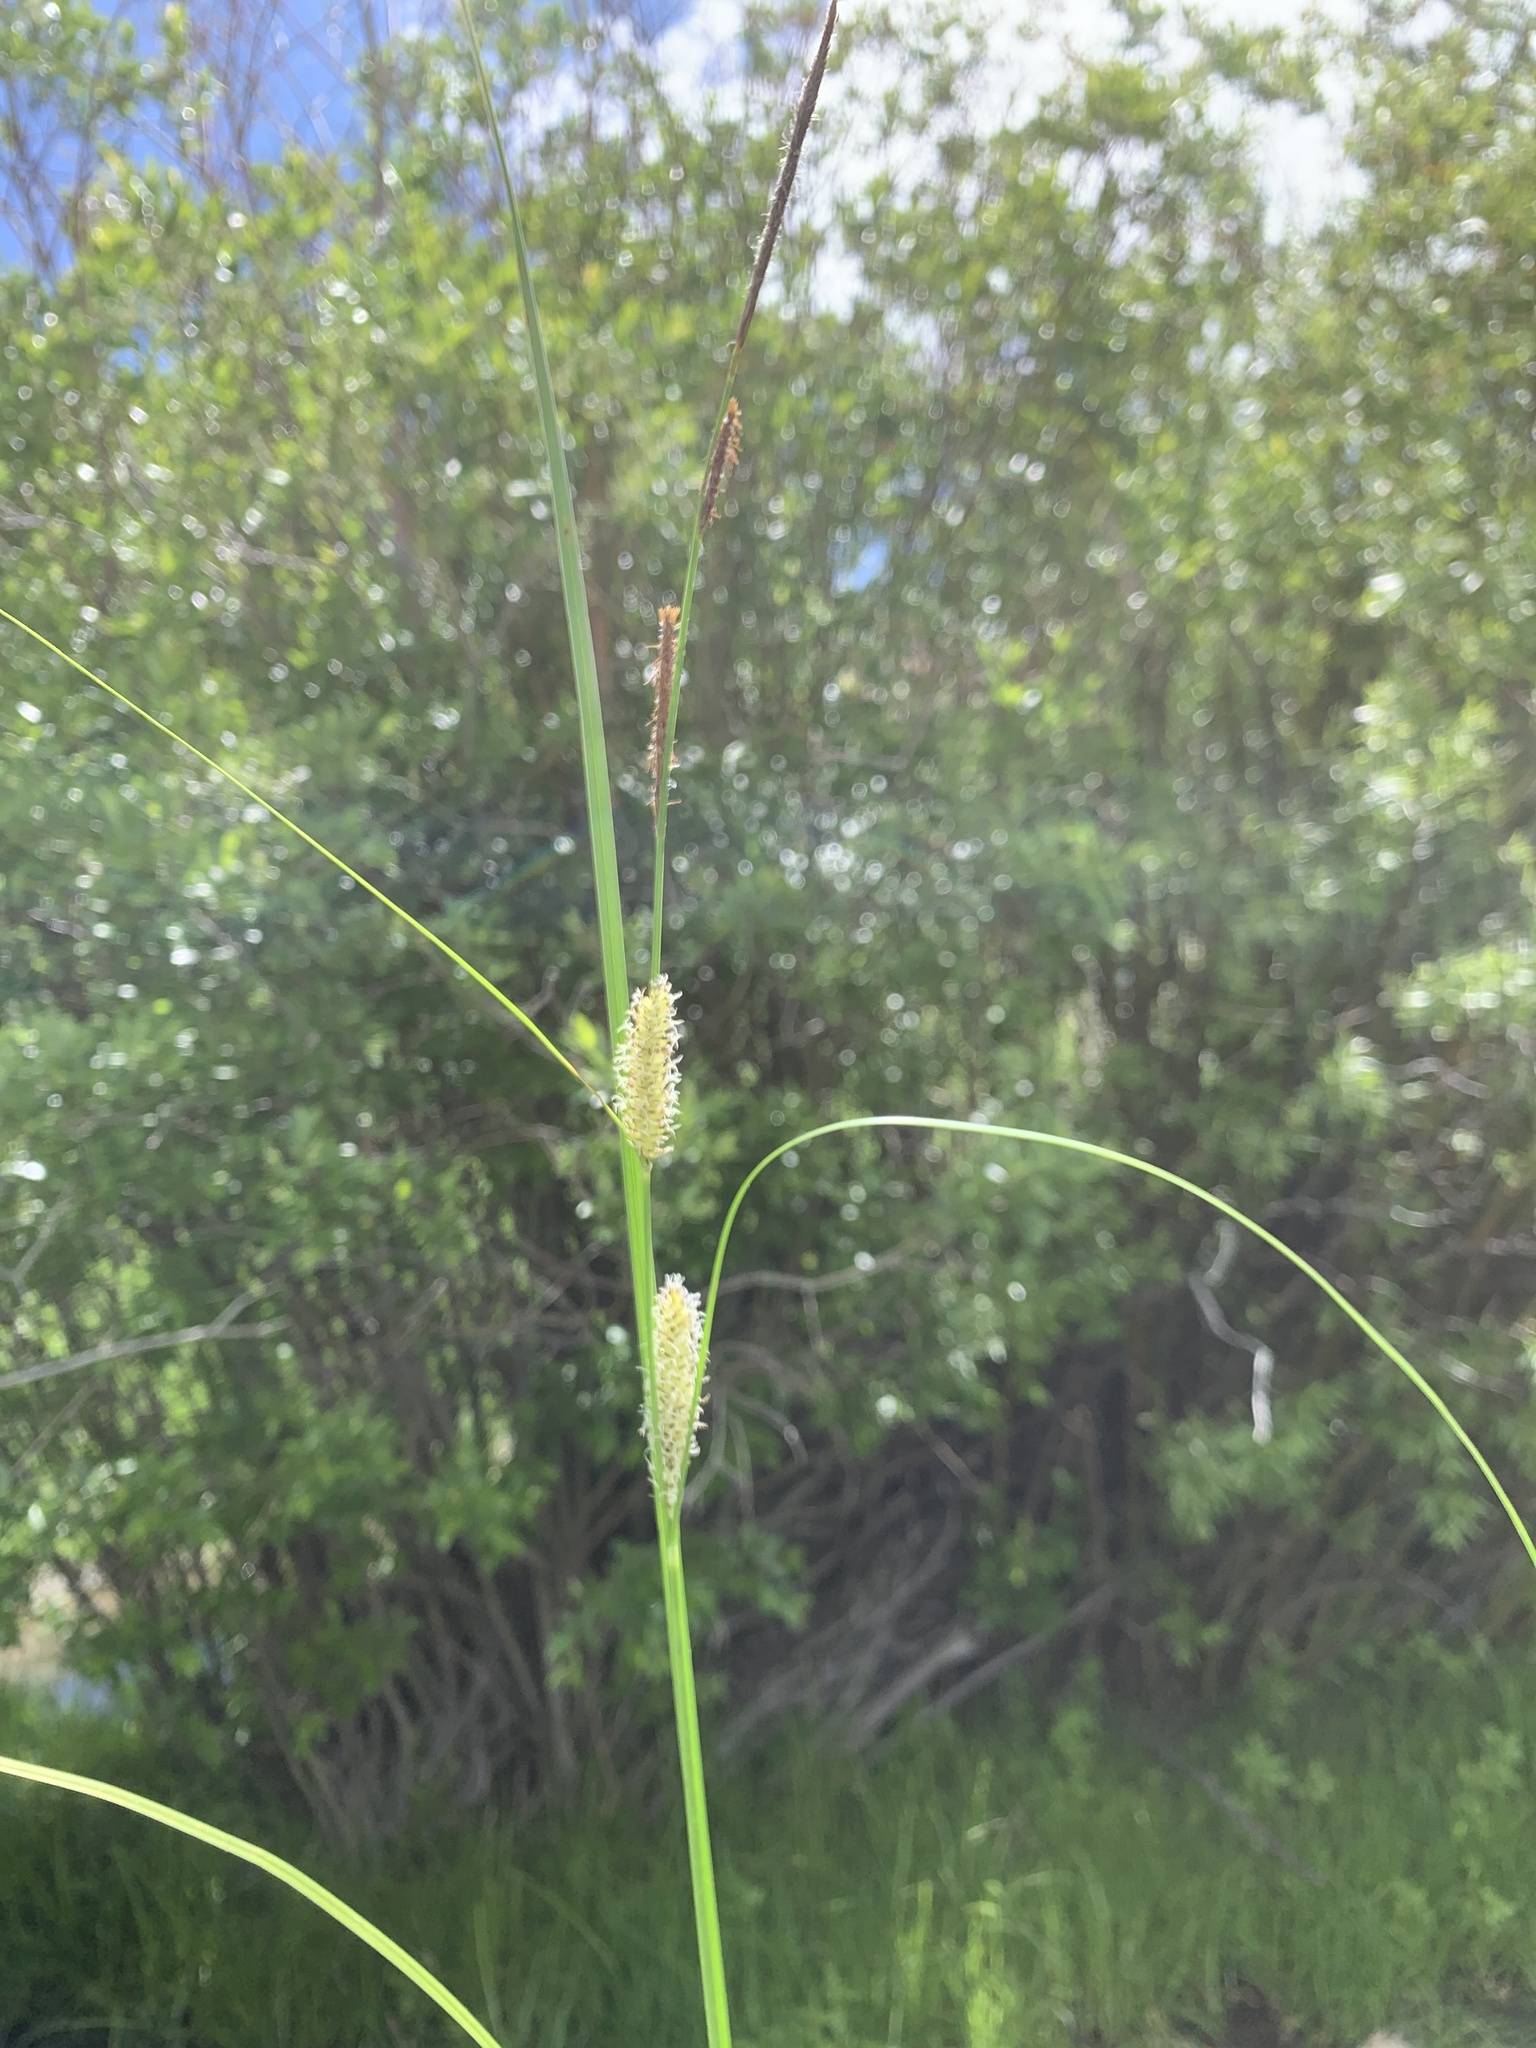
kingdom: Plantae
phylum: Tracheophyta
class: Liliopsida
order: Poales
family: Cyperaceae
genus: Carex
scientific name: Carex utriculata
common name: Beaked sedge
